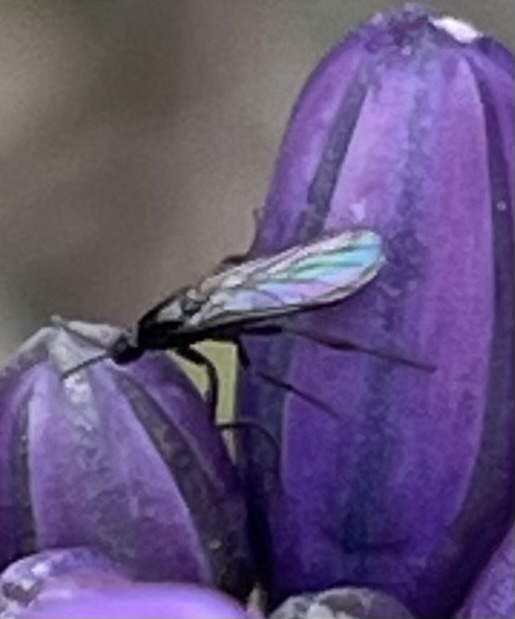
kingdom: Animalia
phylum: Arthropoda
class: Insecta
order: Diptera
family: Canthyloscelididae
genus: Exiliscelis
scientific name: Exiliscelis californiensis
